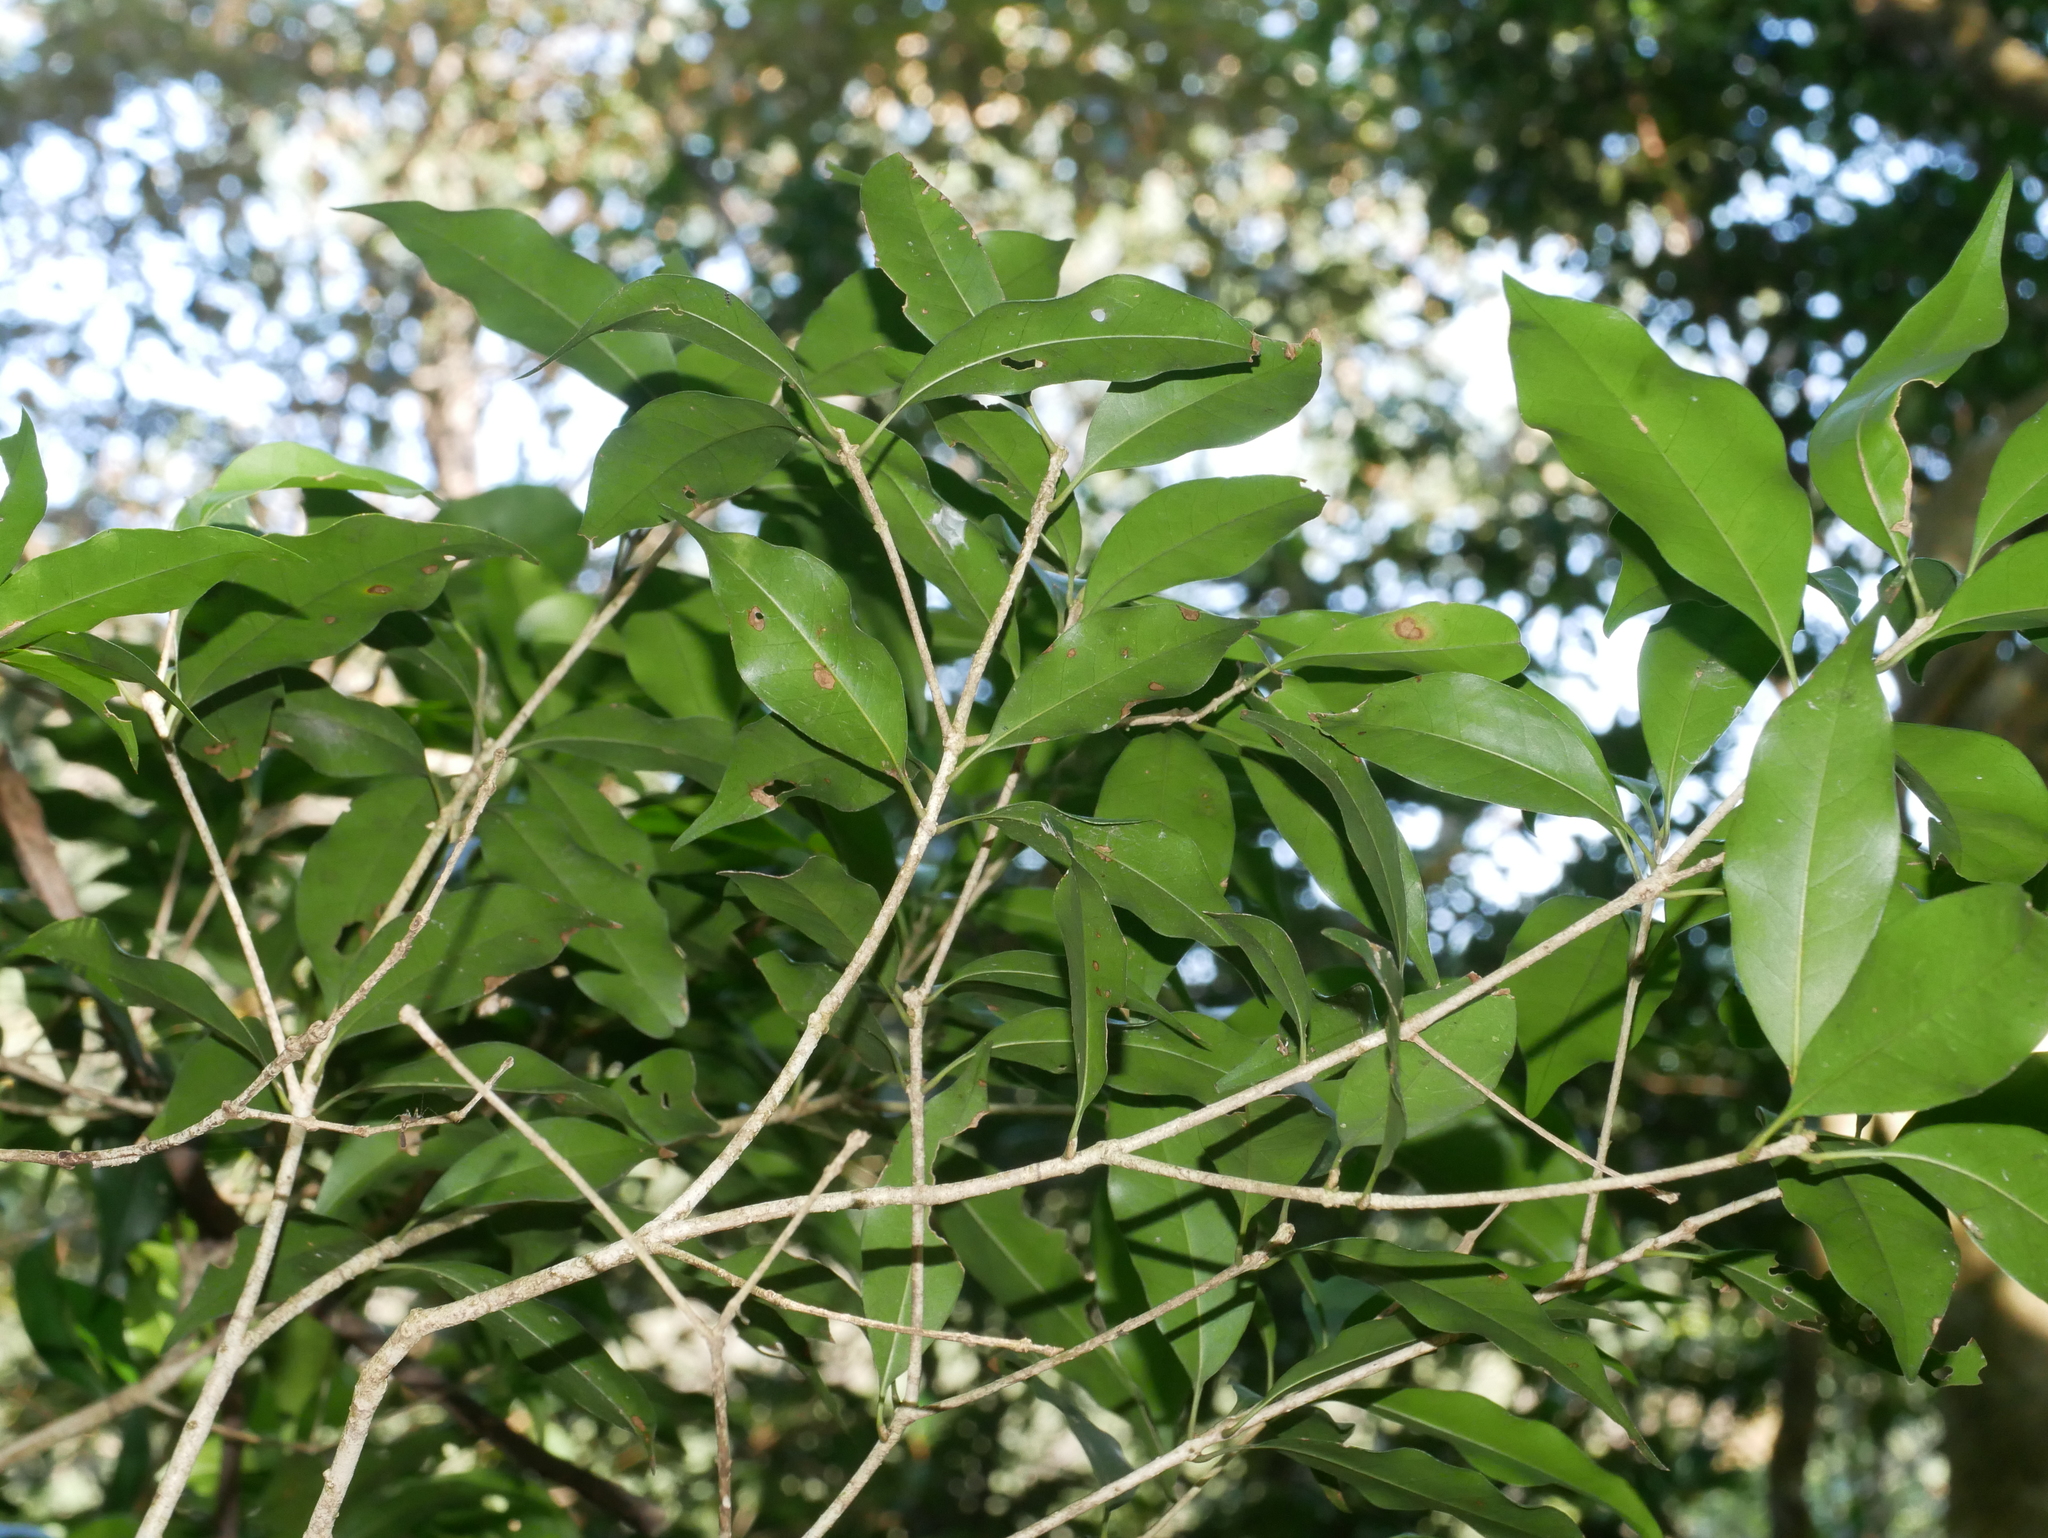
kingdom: Plantae
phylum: Tracheophyta
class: Magnoliopsida
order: Lamiales
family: Oleaceae
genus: Osmanthus
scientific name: Osmanthus enervius
